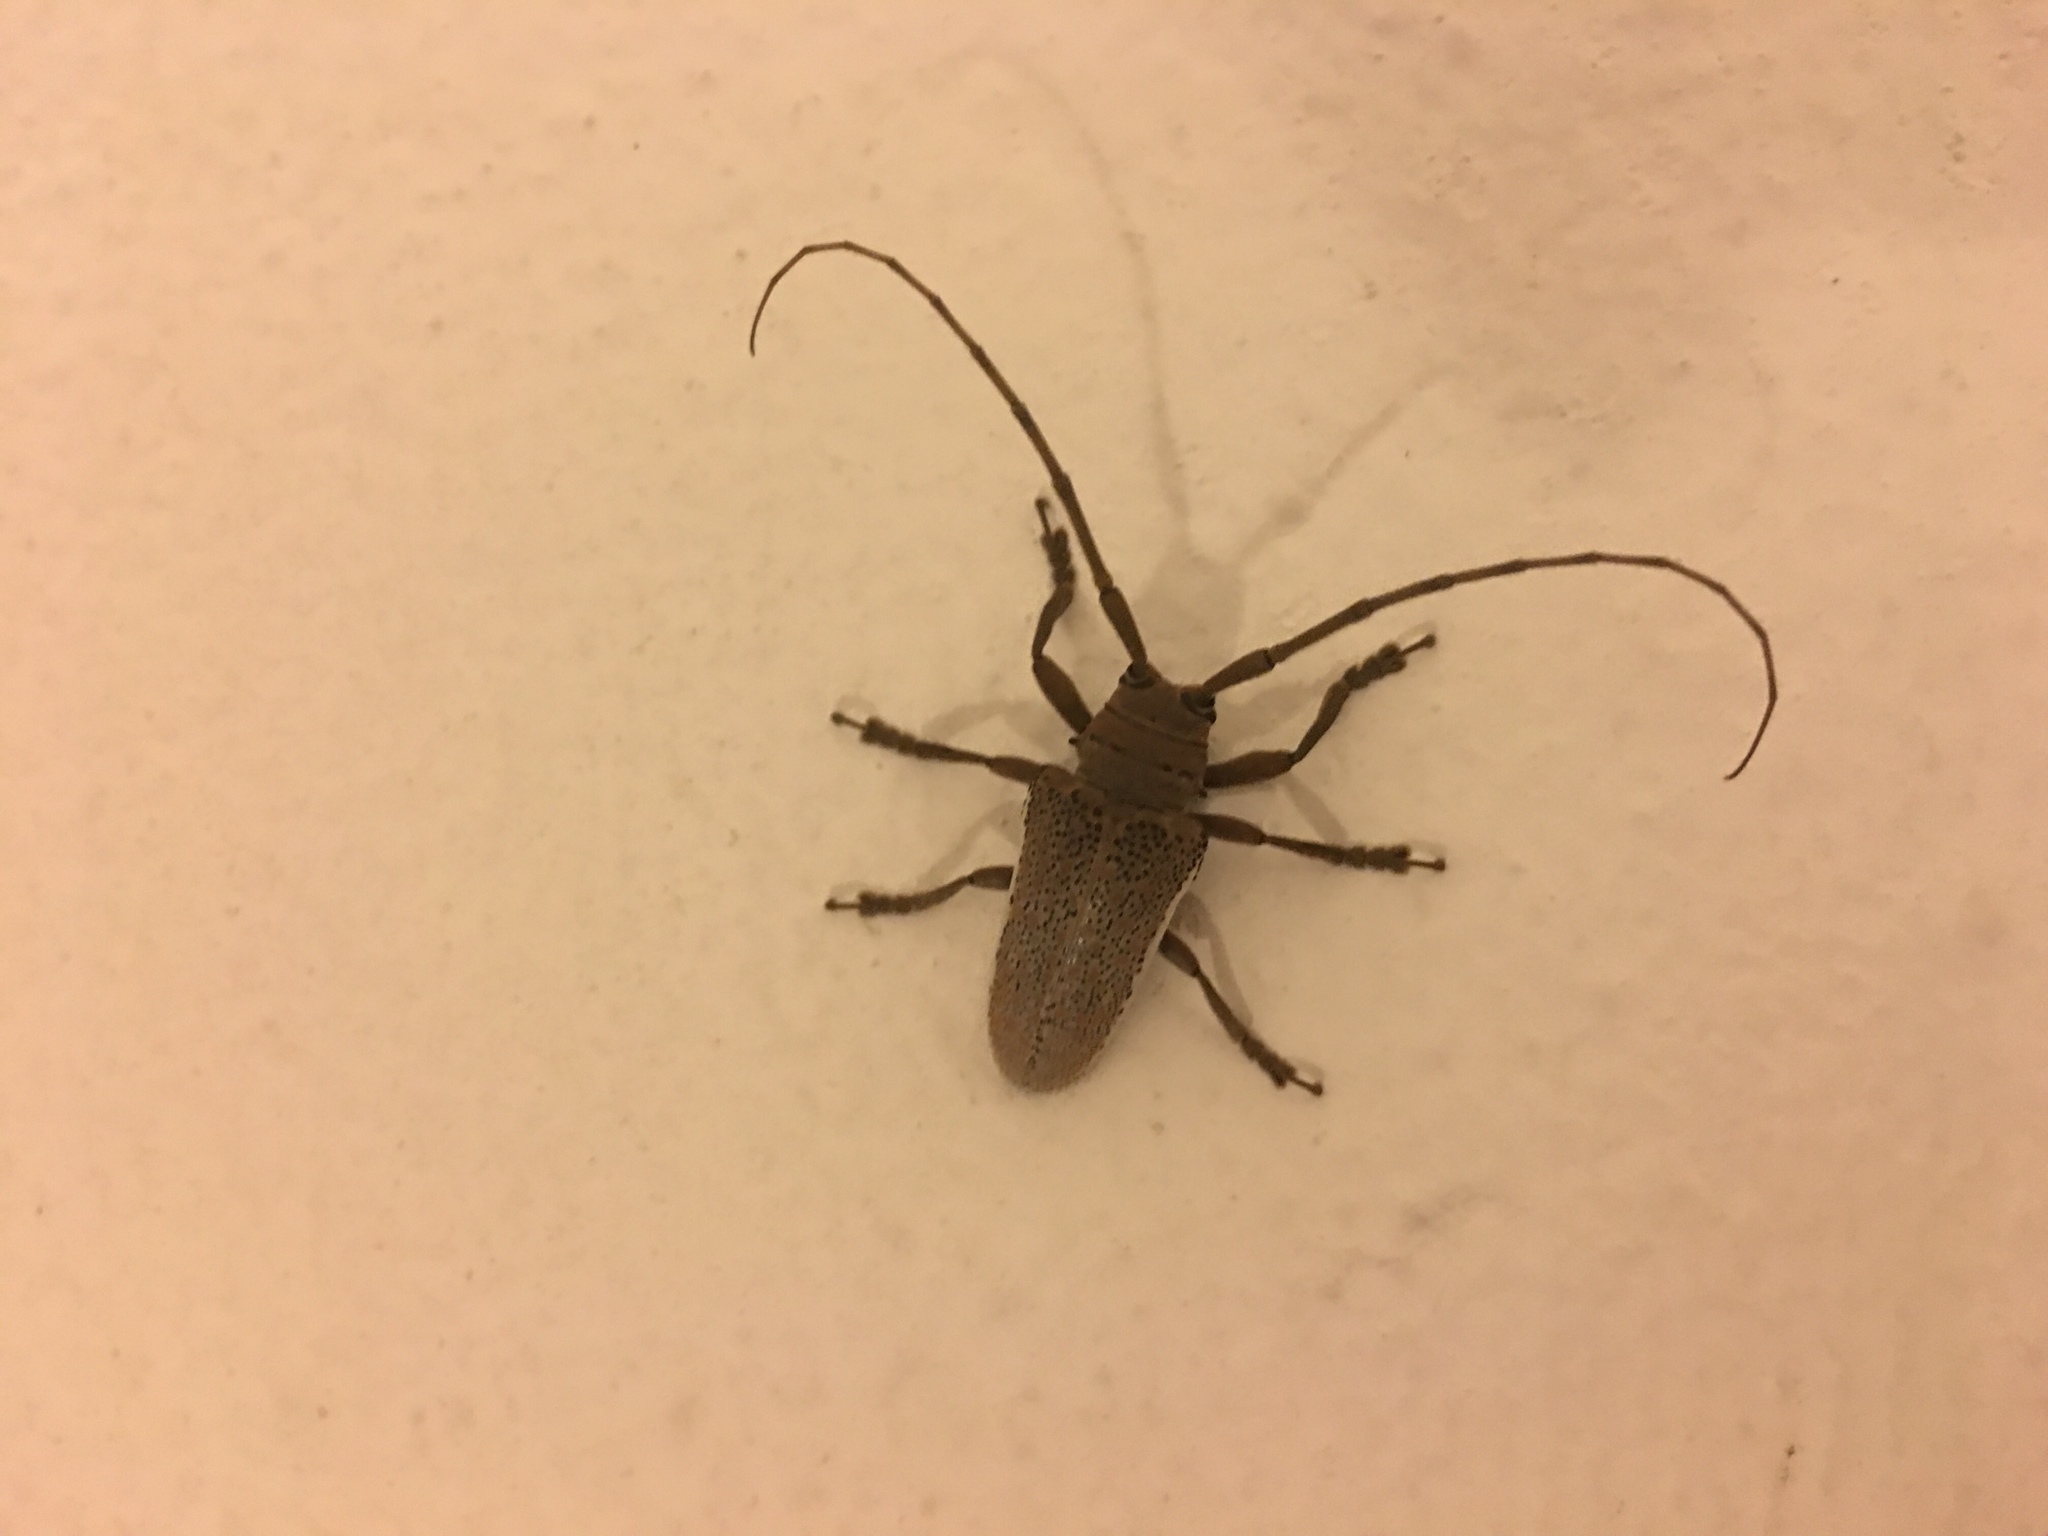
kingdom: Animalia
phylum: Arthropoda
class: Insecta
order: Coleoptera
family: Cerambycidae
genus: Oncideres
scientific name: Oncideres albomarginata
